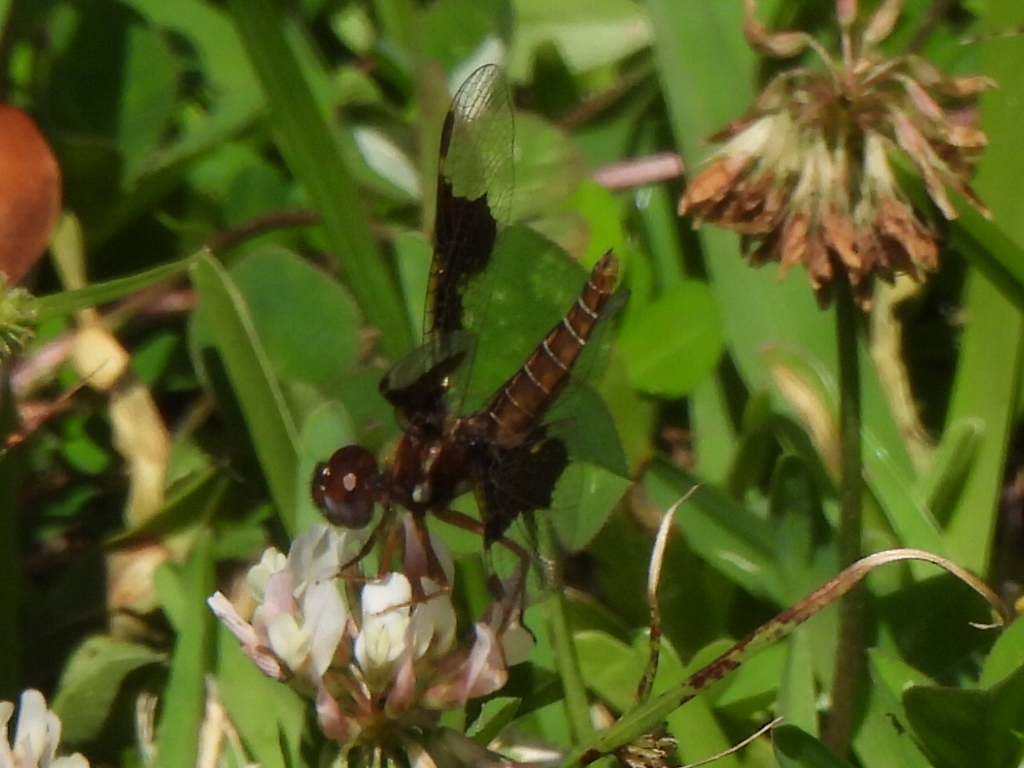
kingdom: Animalia
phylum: Arthropoda
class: Insecta
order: Odonata
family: Libellulidae
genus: Perithemis
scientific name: Perithemis tenera
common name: Eastern amberwing
